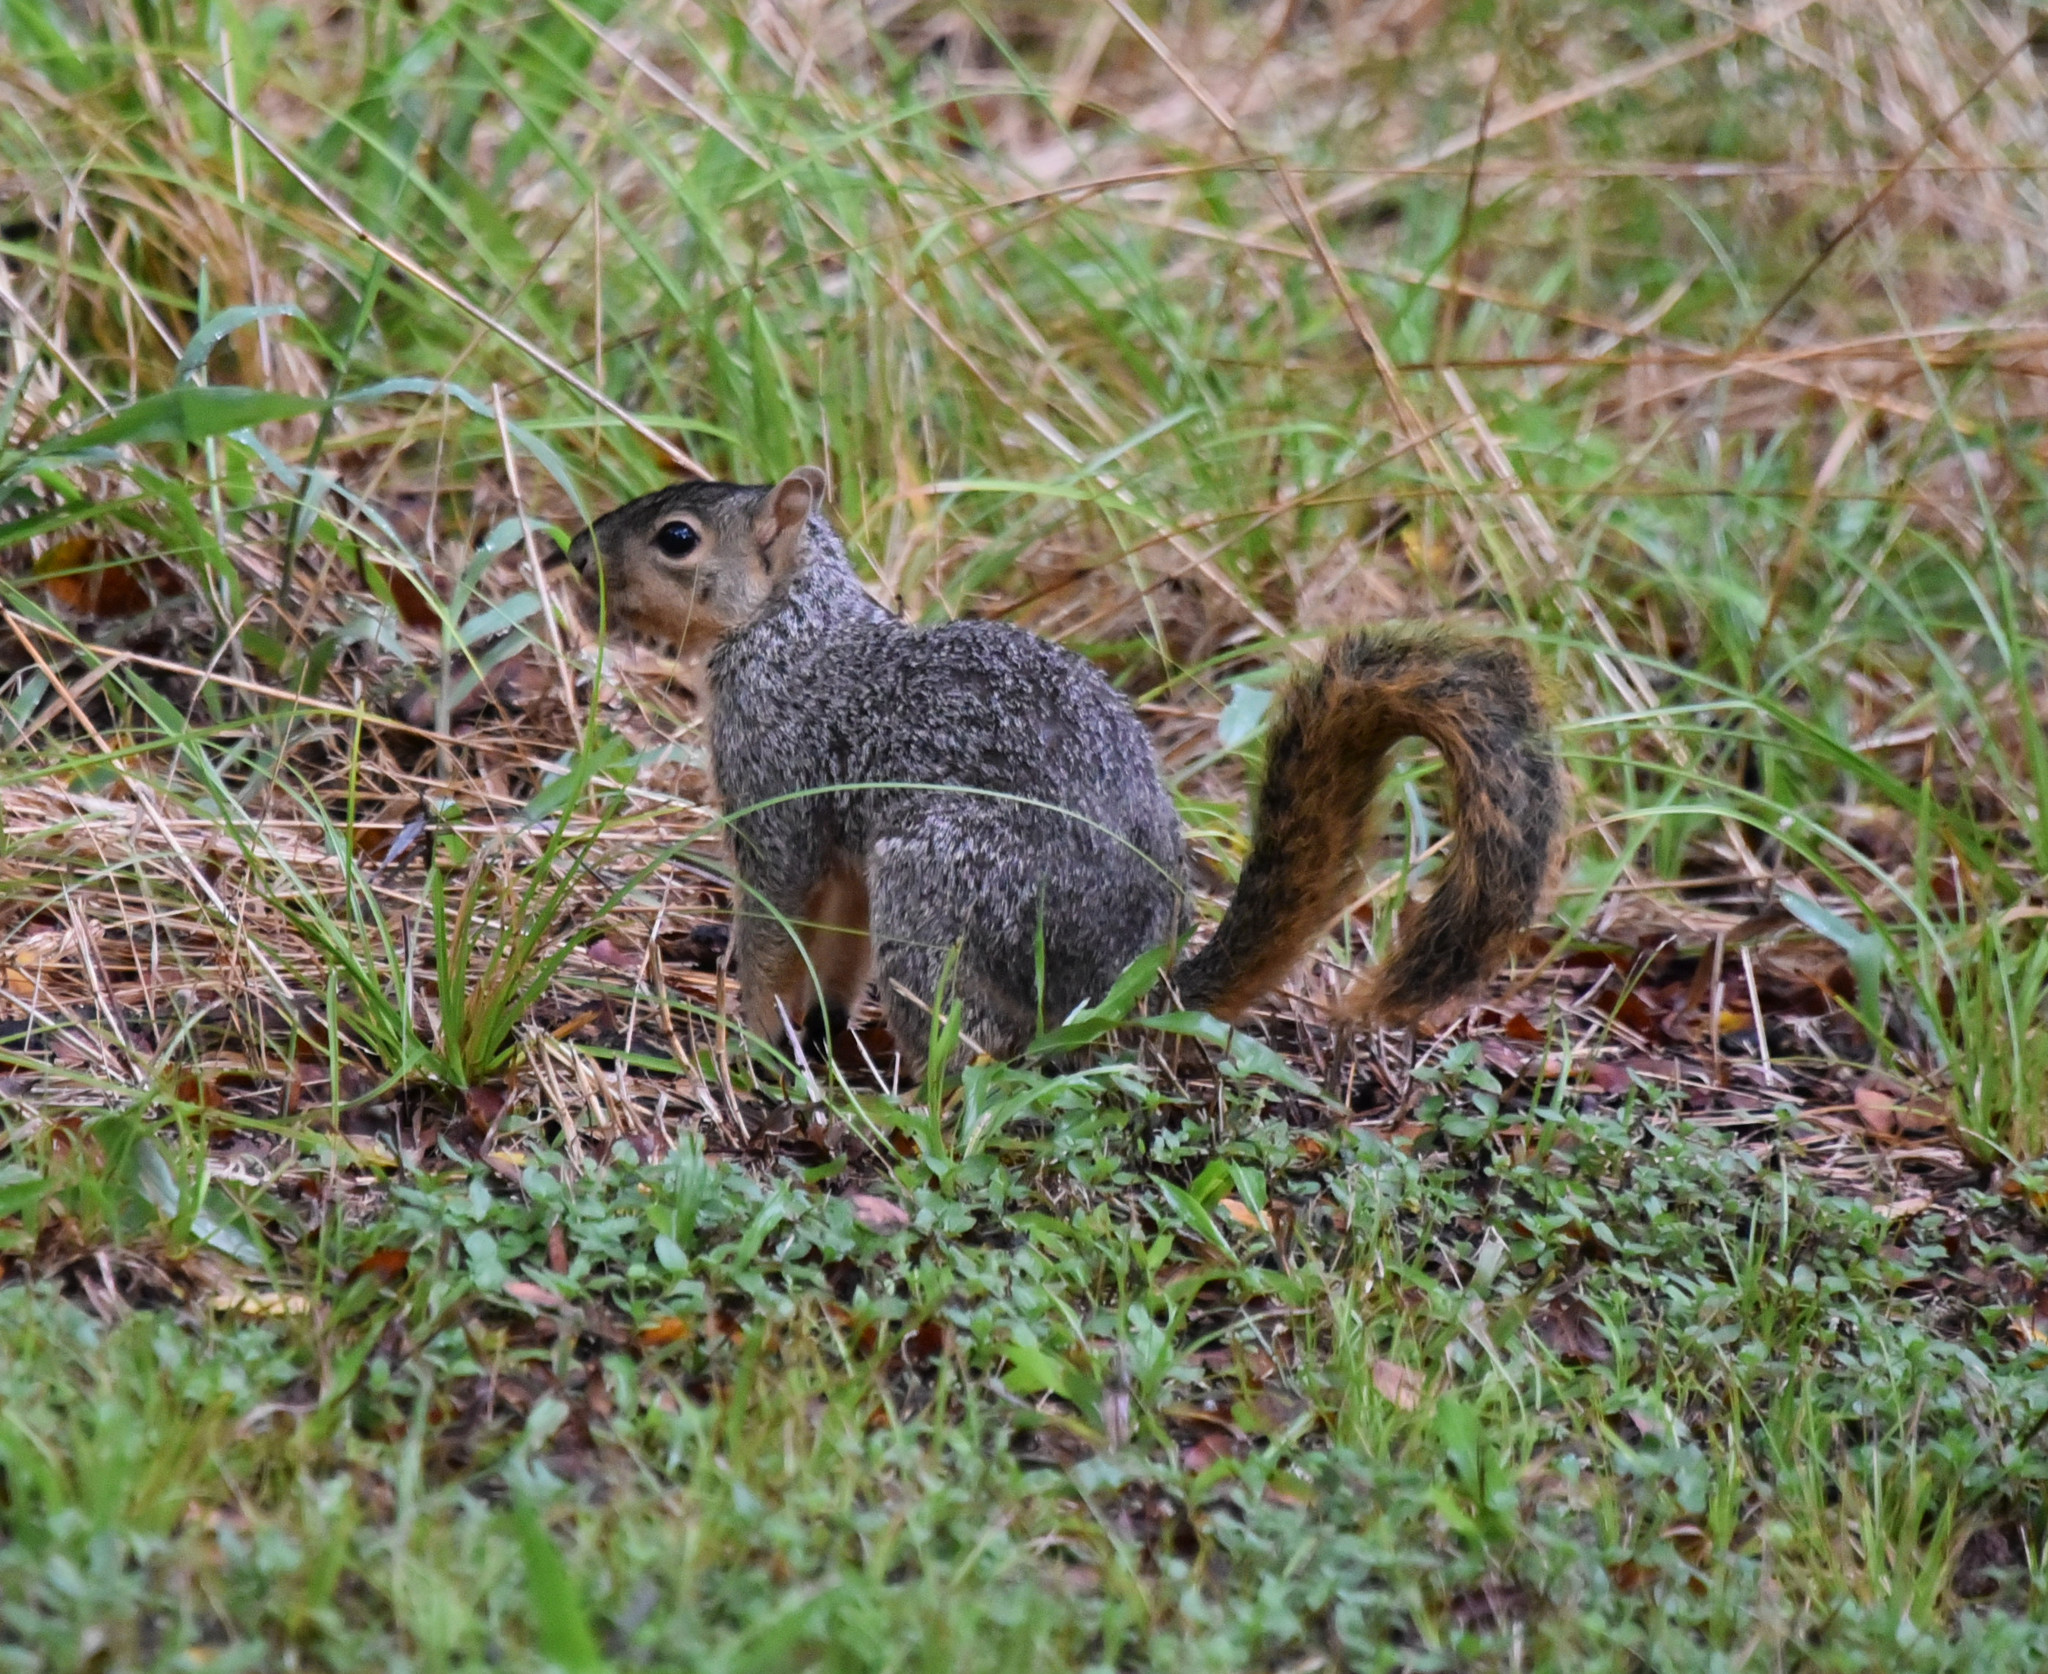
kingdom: Animalia
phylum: Chordata
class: Mammalia
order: Rodentia
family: Sciuridae
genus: Sciurus
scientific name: Sciurus niger
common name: Fox squirrel
